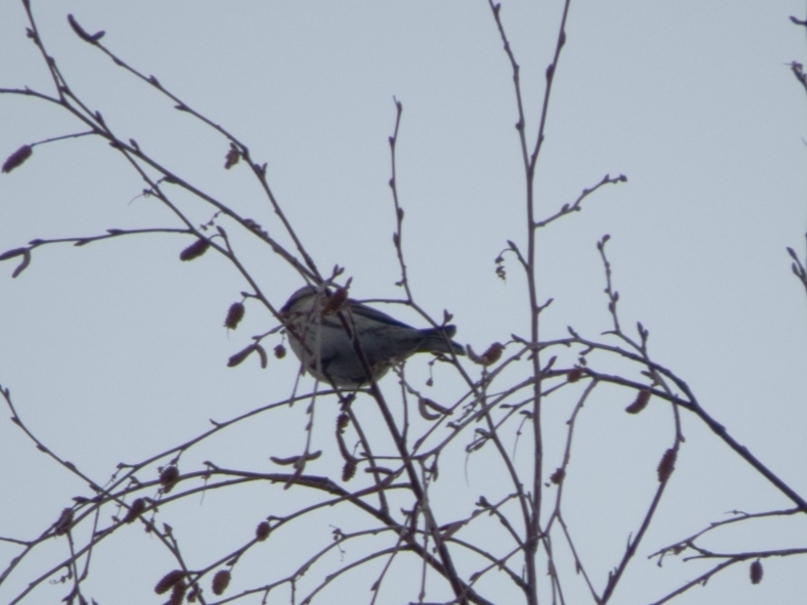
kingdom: Animalia
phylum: Chordata
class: Aves
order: Passeriformes
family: Fringillidae
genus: Acanthis
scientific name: Acanthis flammea
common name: Common redpoll
